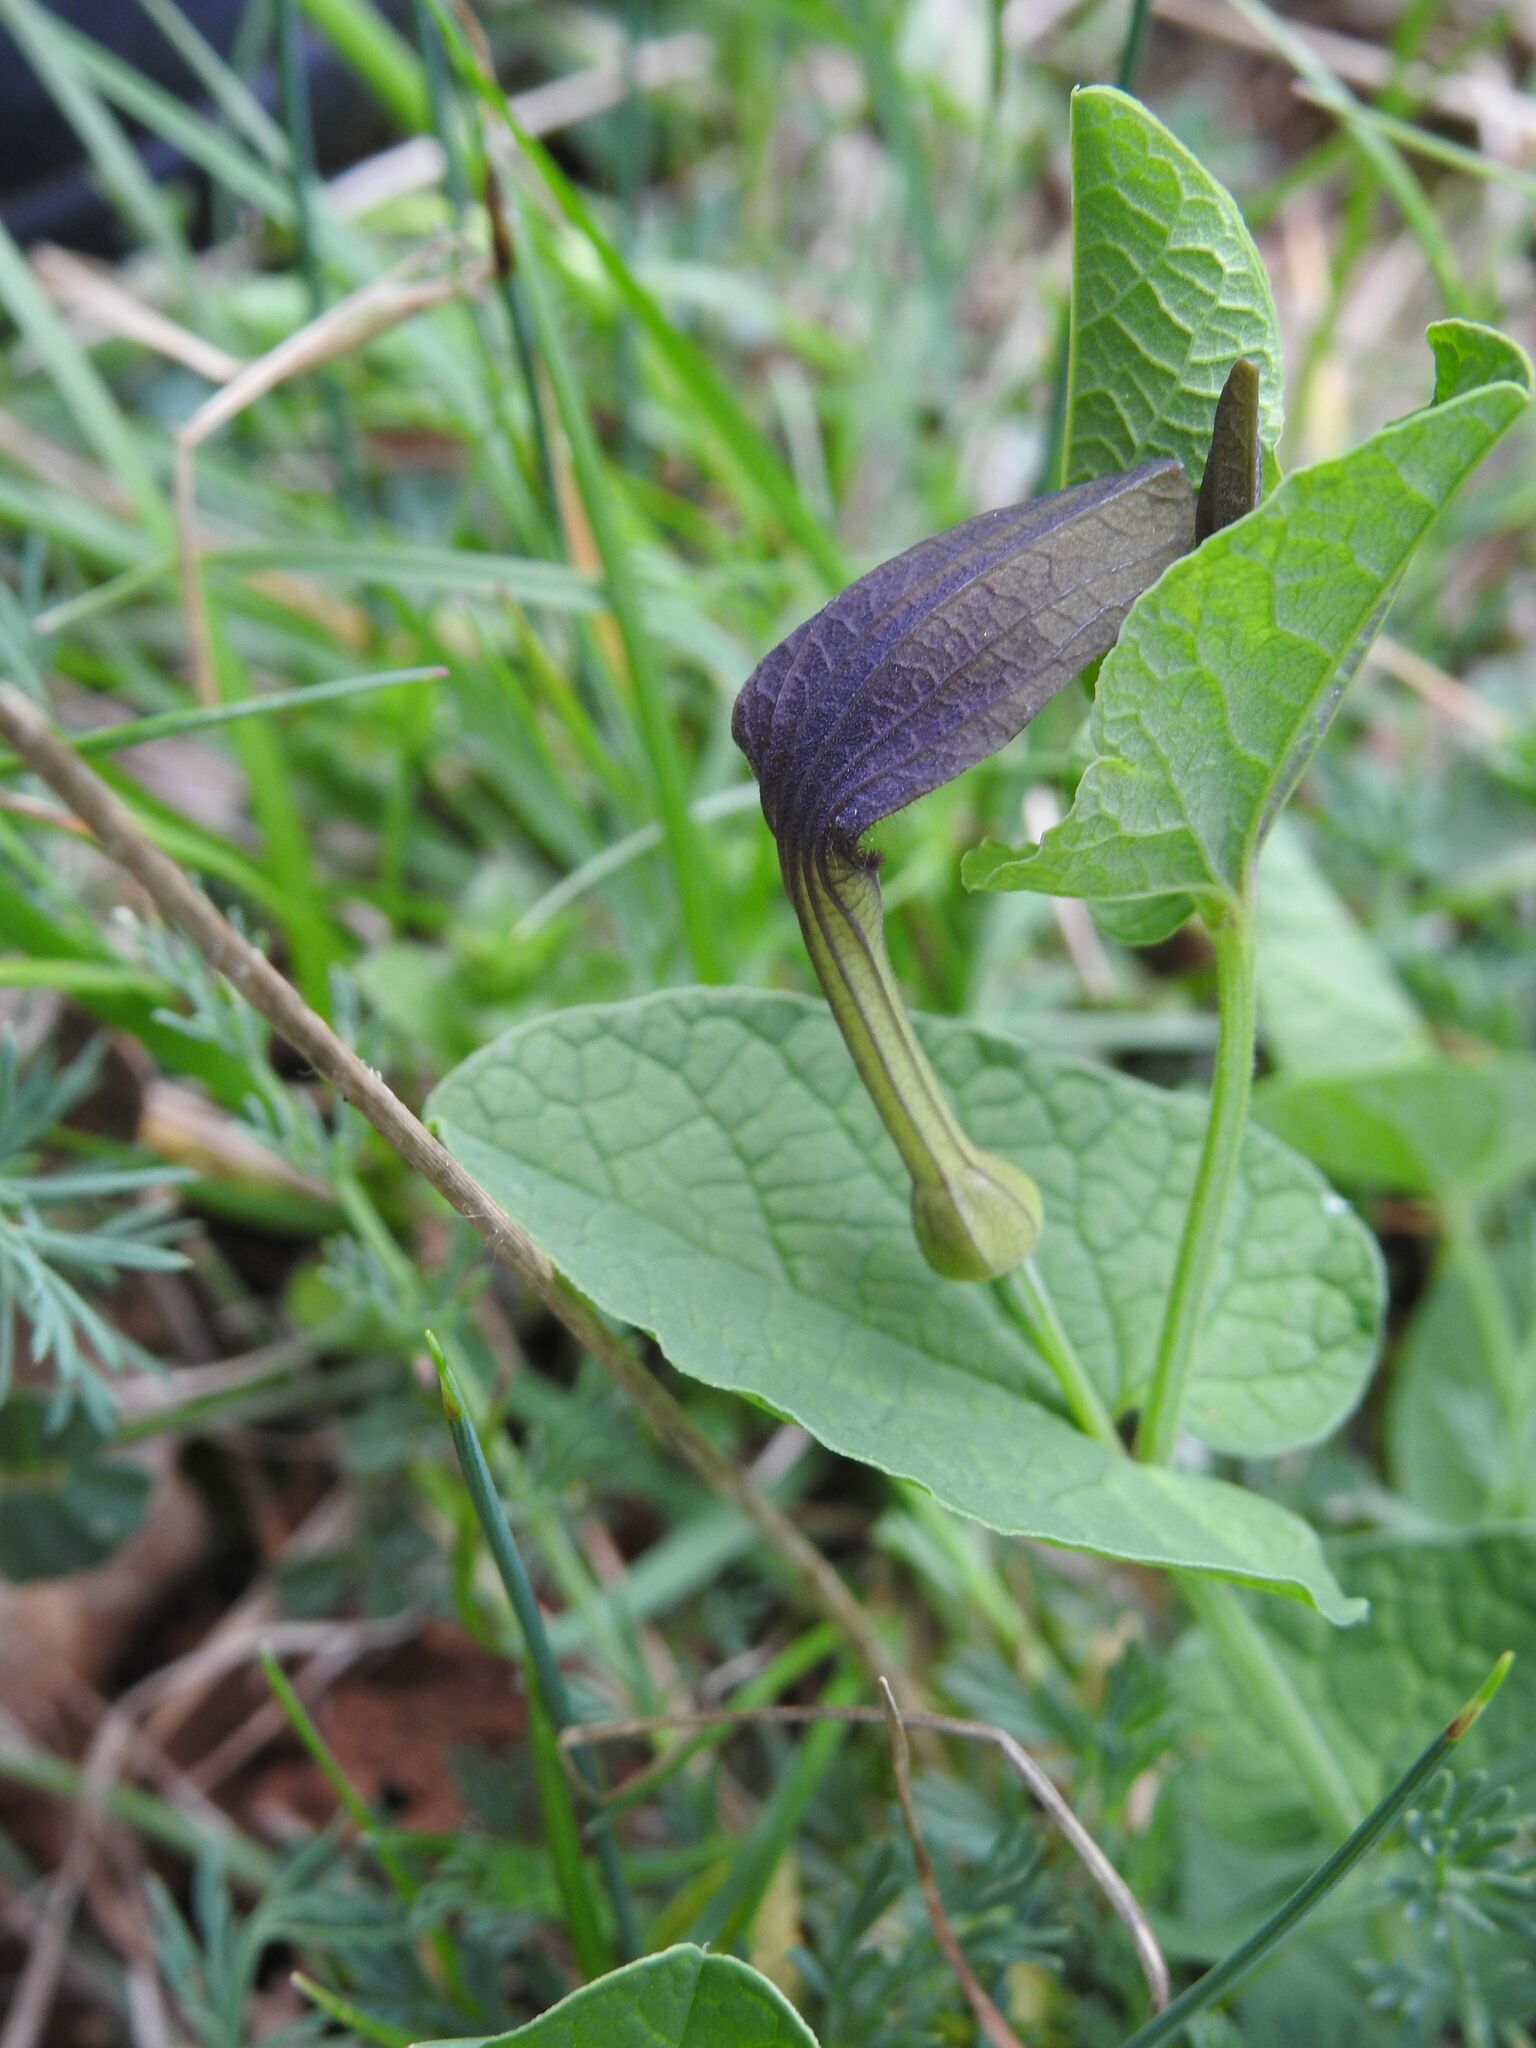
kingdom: Plantae
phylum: Tracheophyta
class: Magnoliopsida
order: Piperales
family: Aristolochiaceae
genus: Aristolochia
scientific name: Aristolochia rotunda
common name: Smearwort
